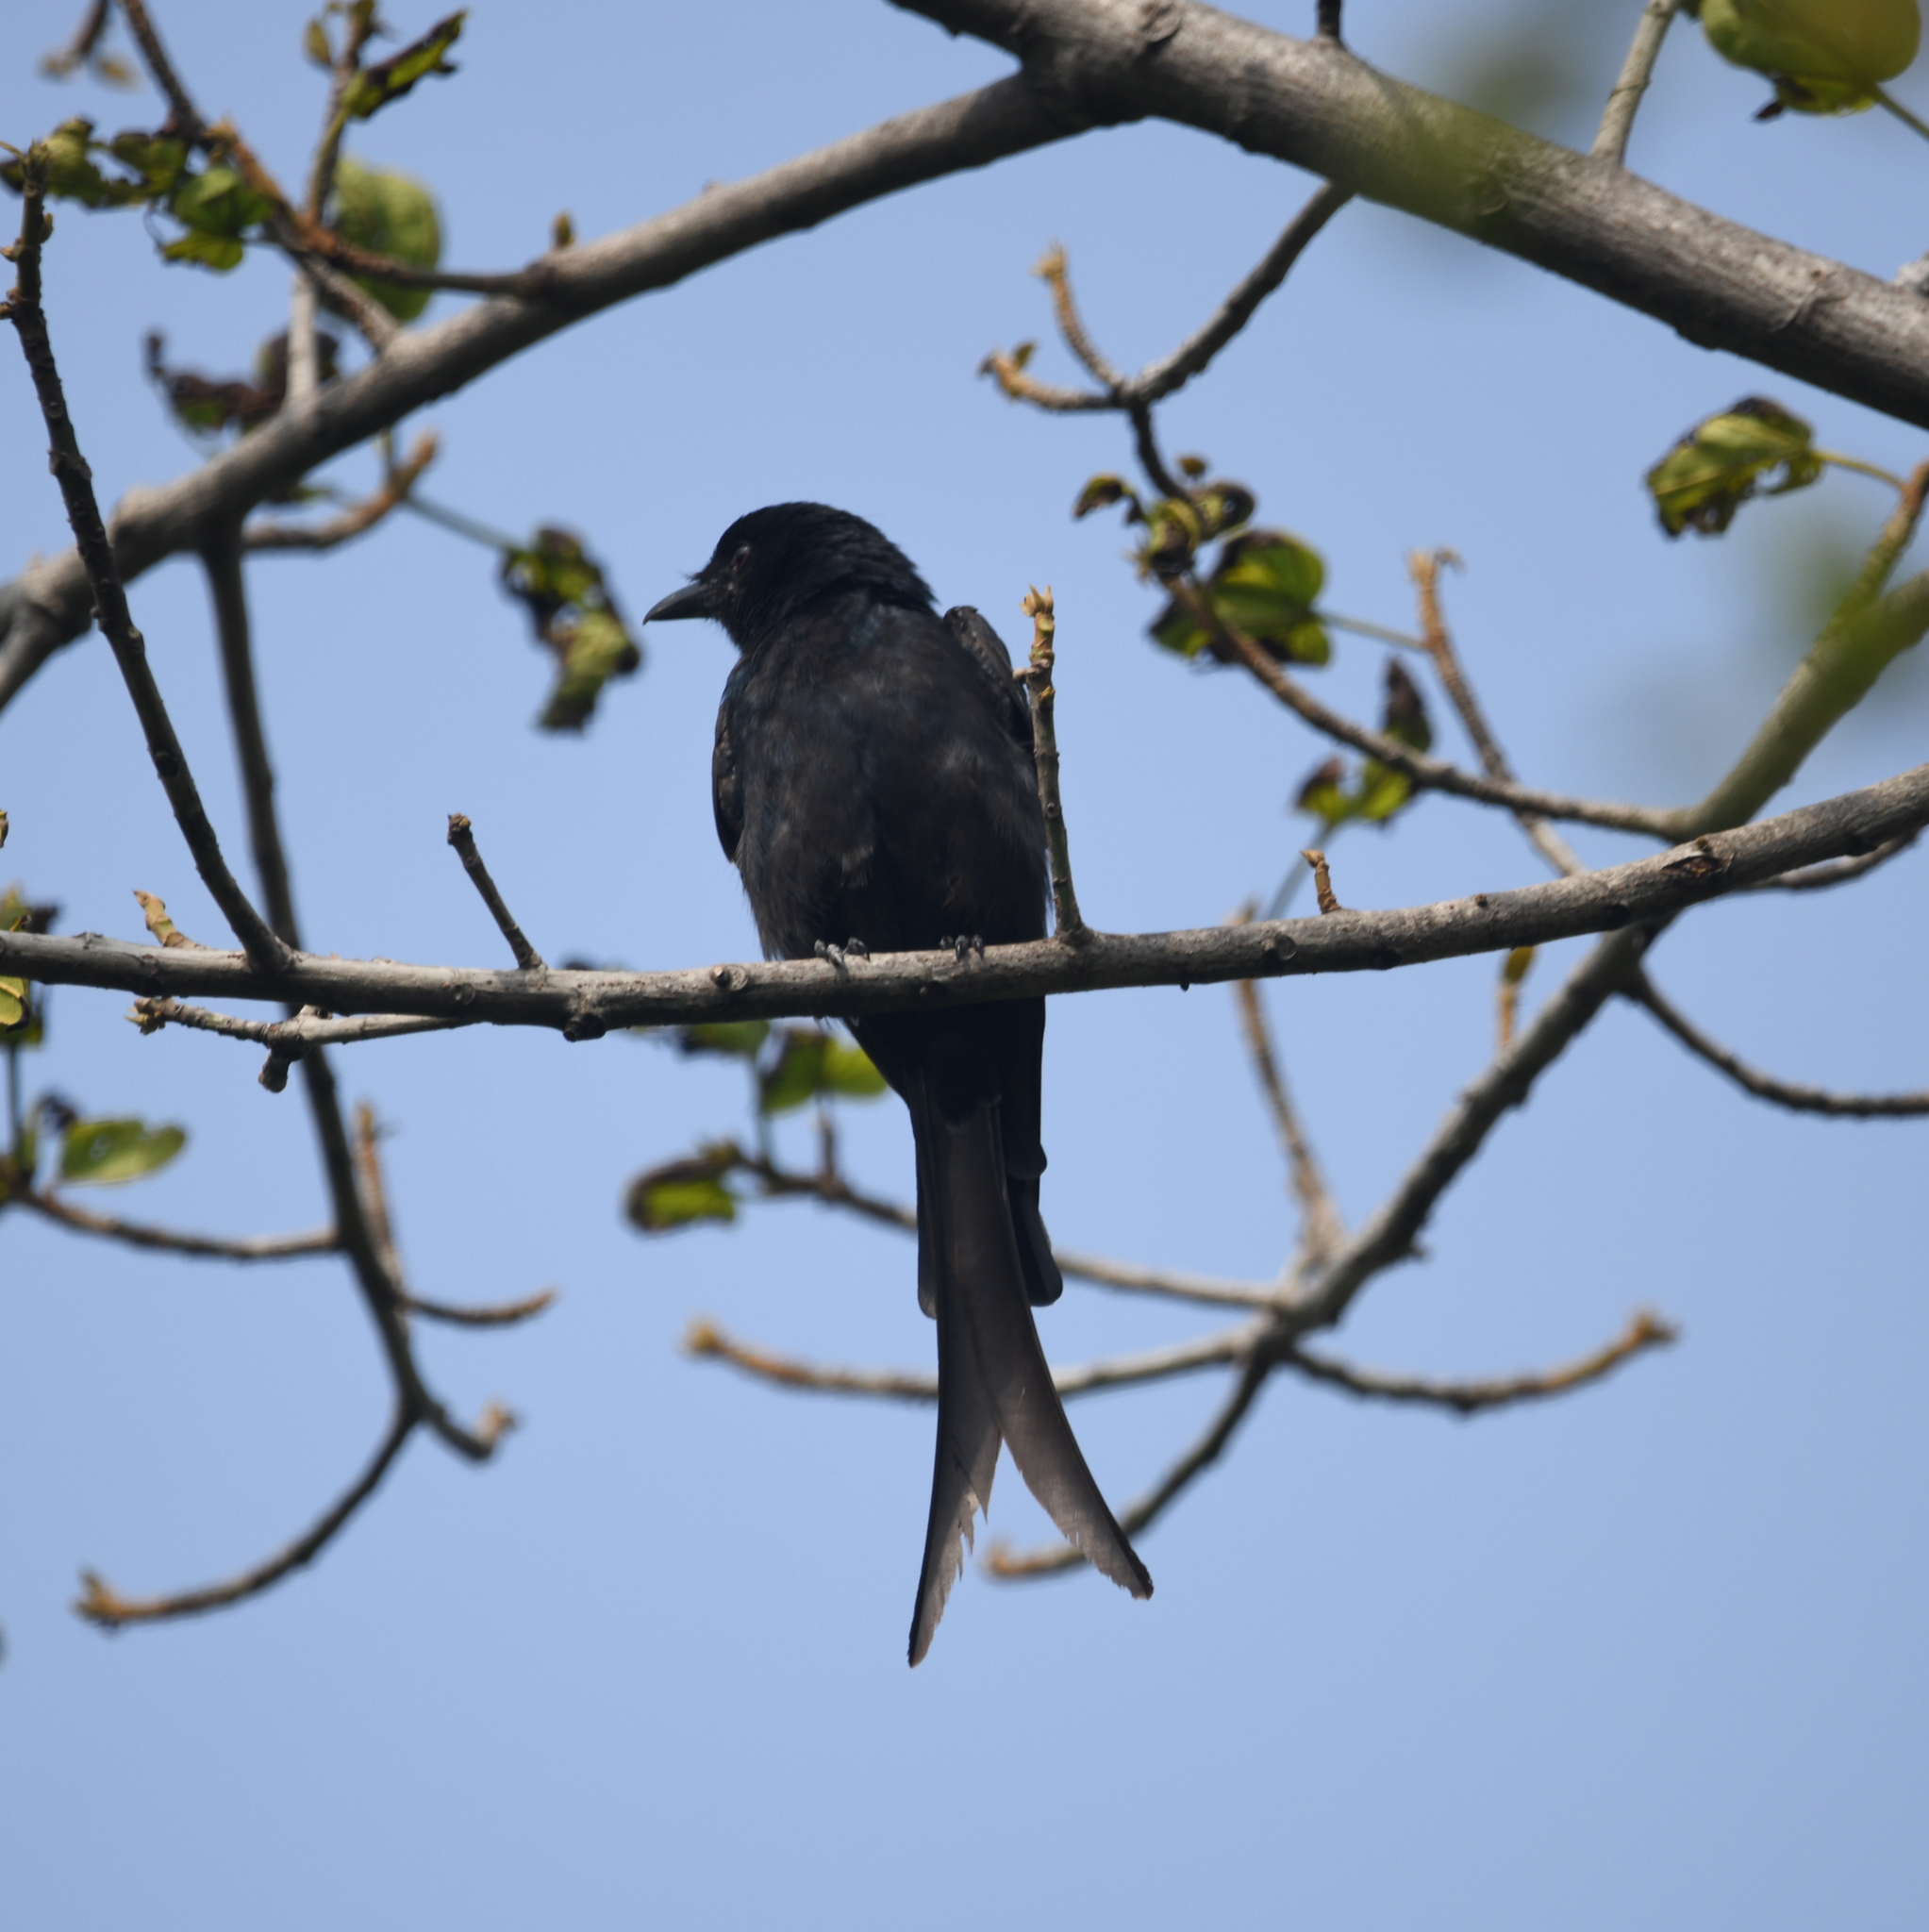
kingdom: Animalia
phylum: Chordata
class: Aves
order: Passeriformes
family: Dicruridae
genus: Dicrurus
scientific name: Dicrurus macrocercus
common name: Black drongo
